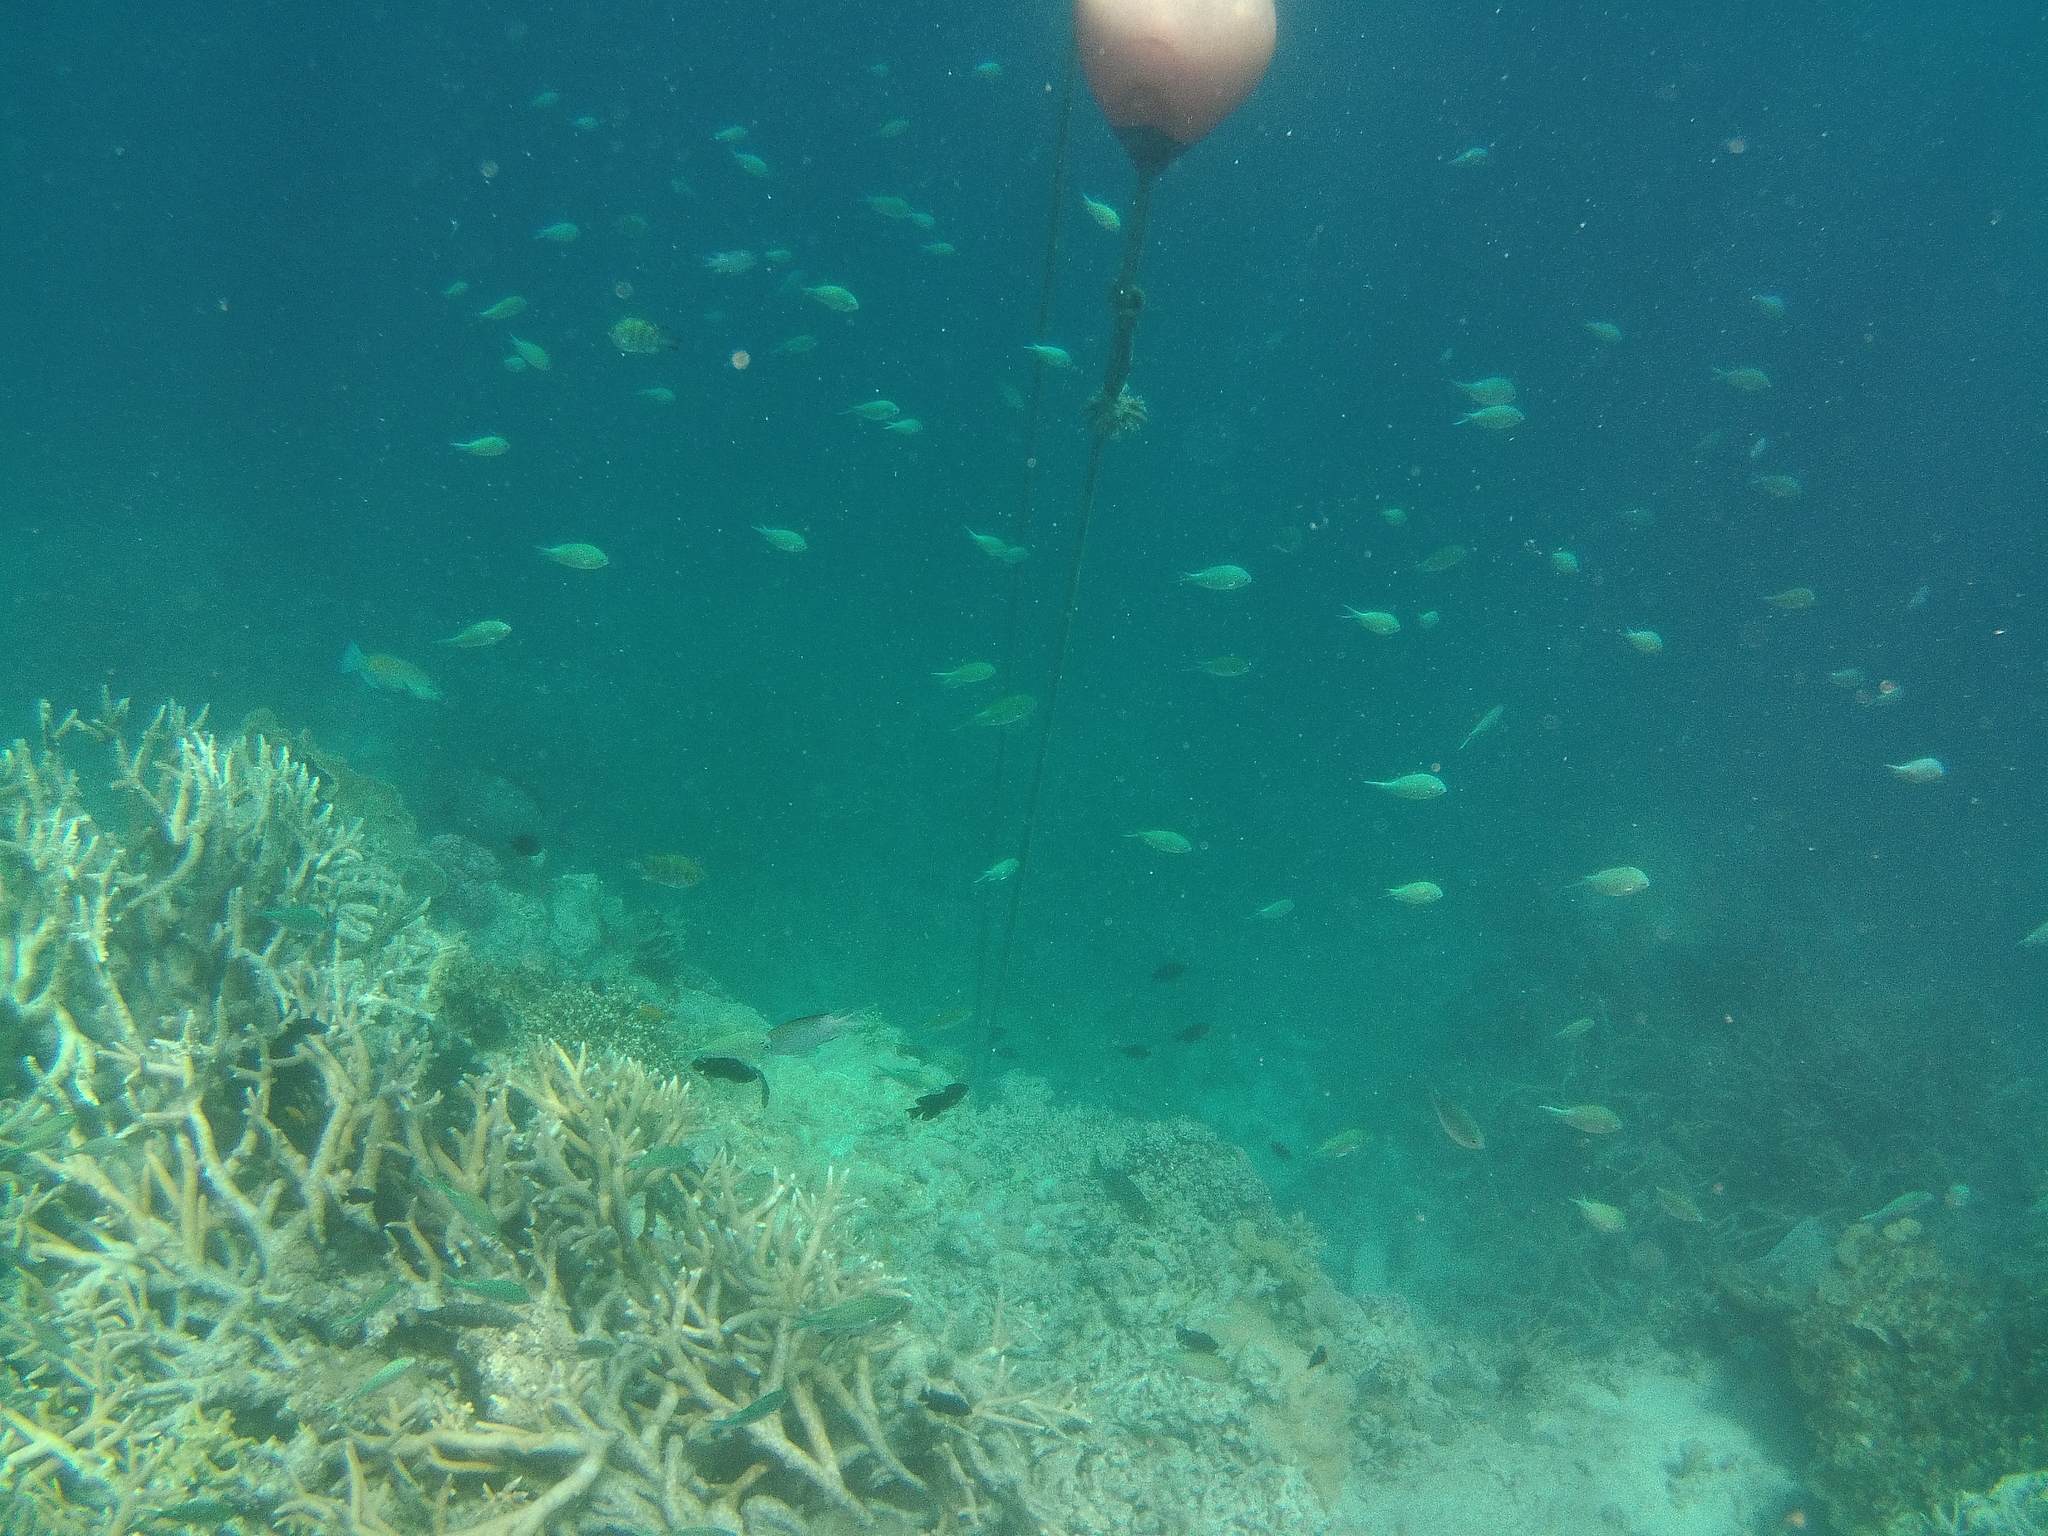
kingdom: Animalia
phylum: Chordata
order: Perciformes
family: Pomacentridae
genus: Chromis
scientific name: Chromis atripectoralis
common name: Black-axil chromis
